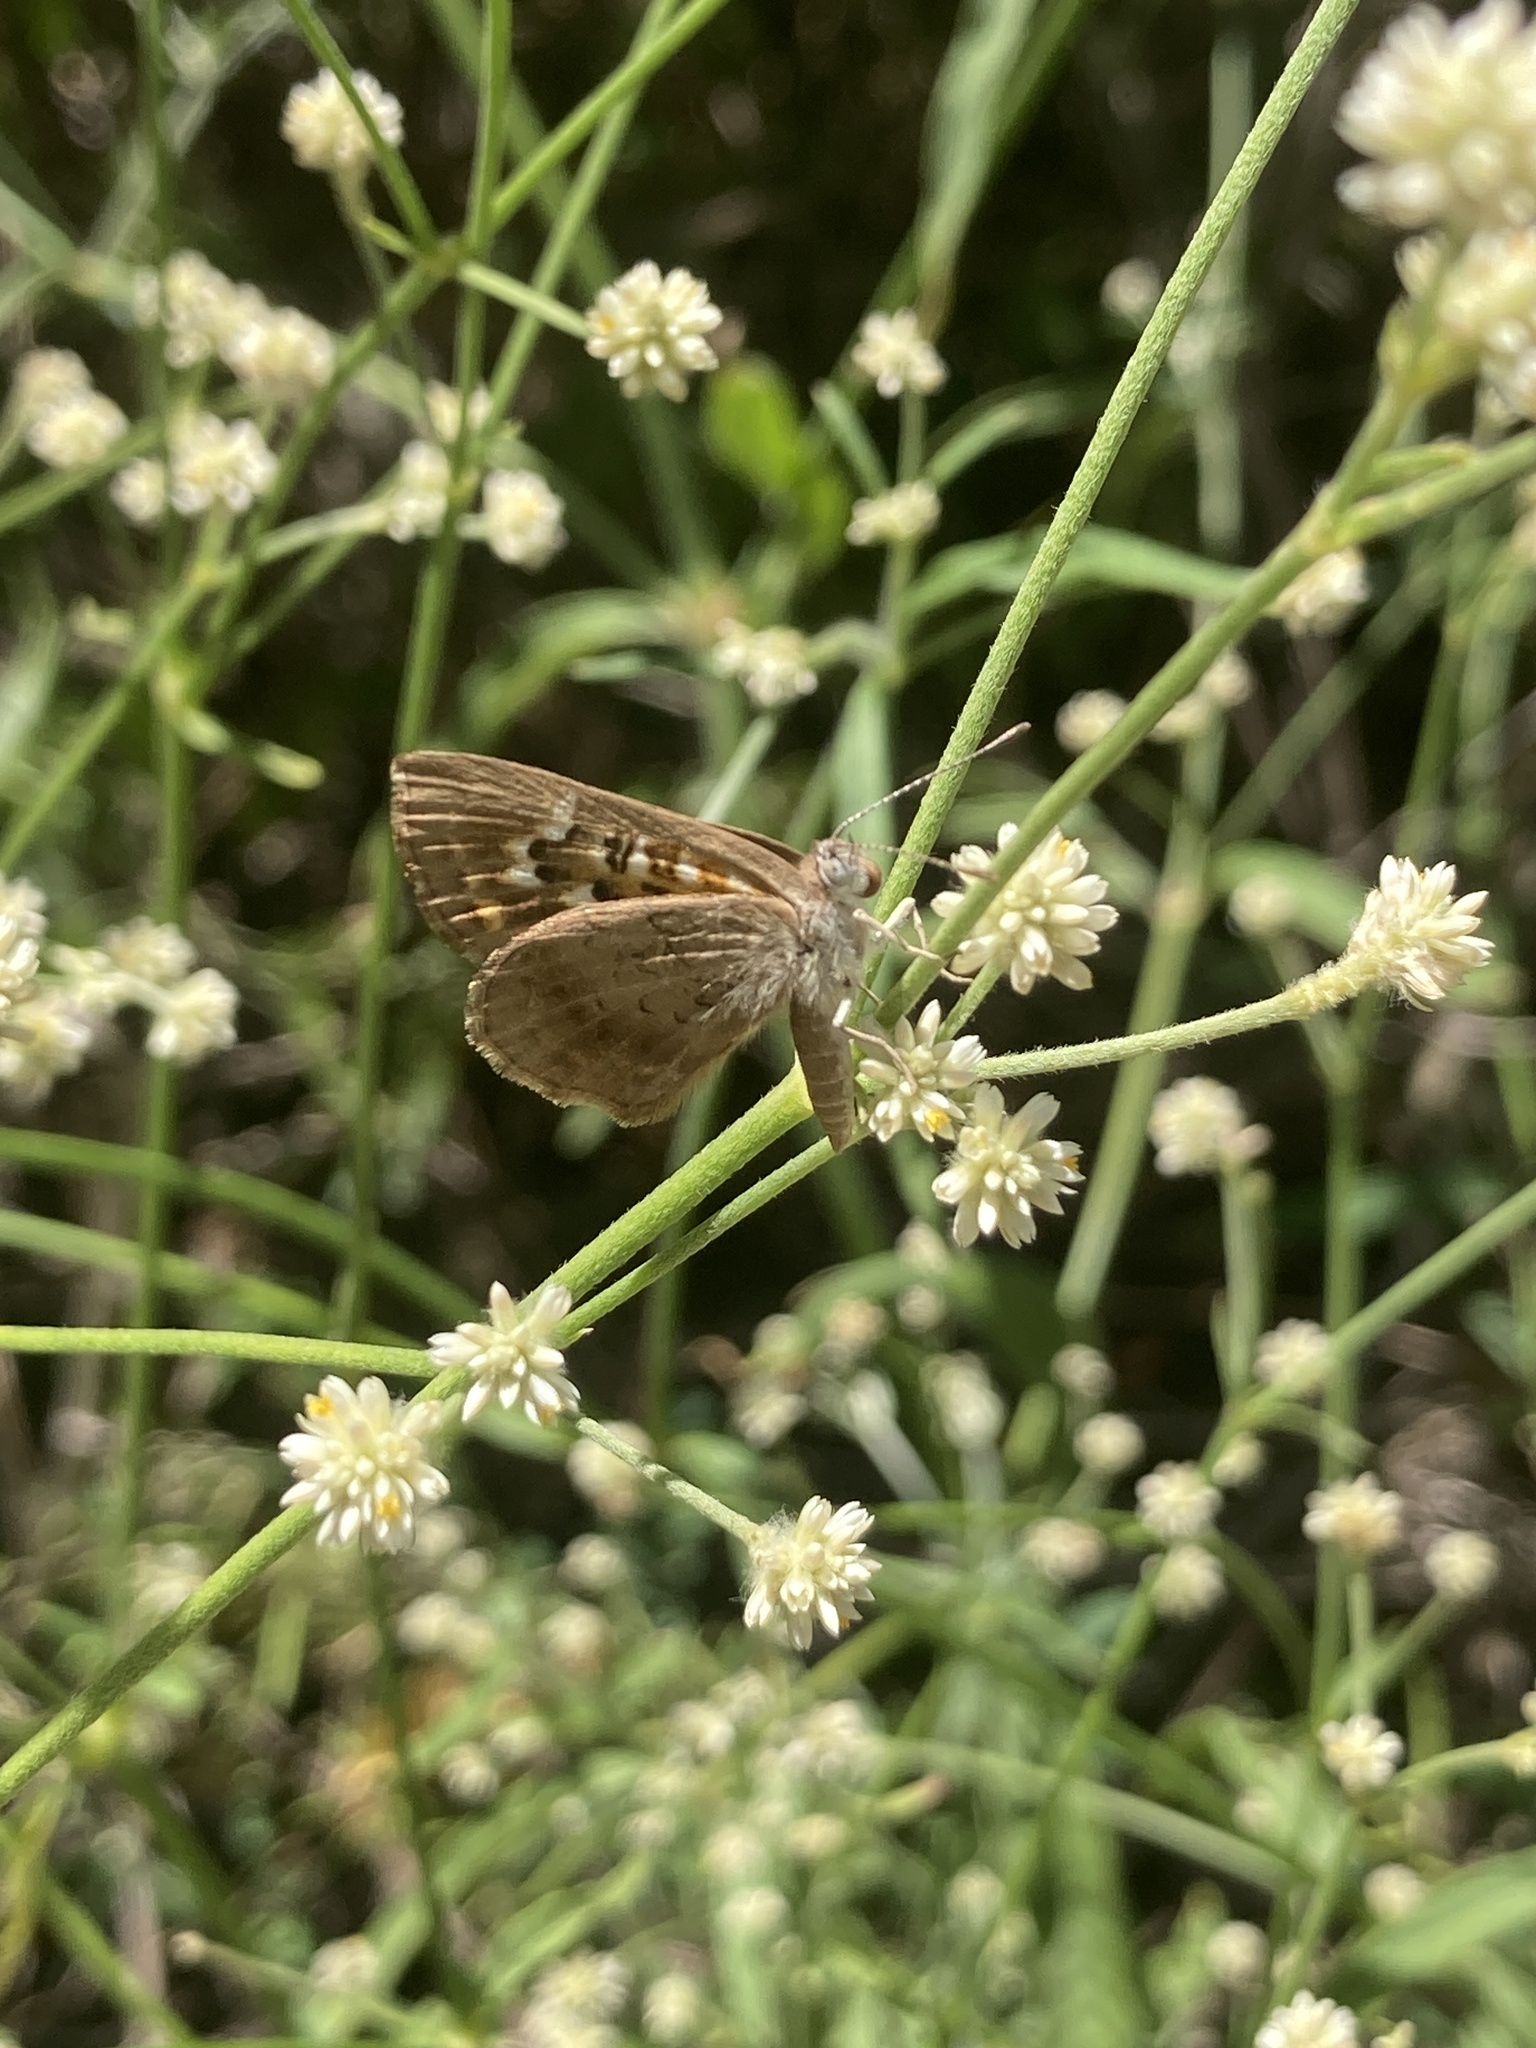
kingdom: Animalia
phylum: Arthropoda
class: Insecta
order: Lepidoptera
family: Lycaenidae
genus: Aricoris
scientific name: Aricoris indistincta
